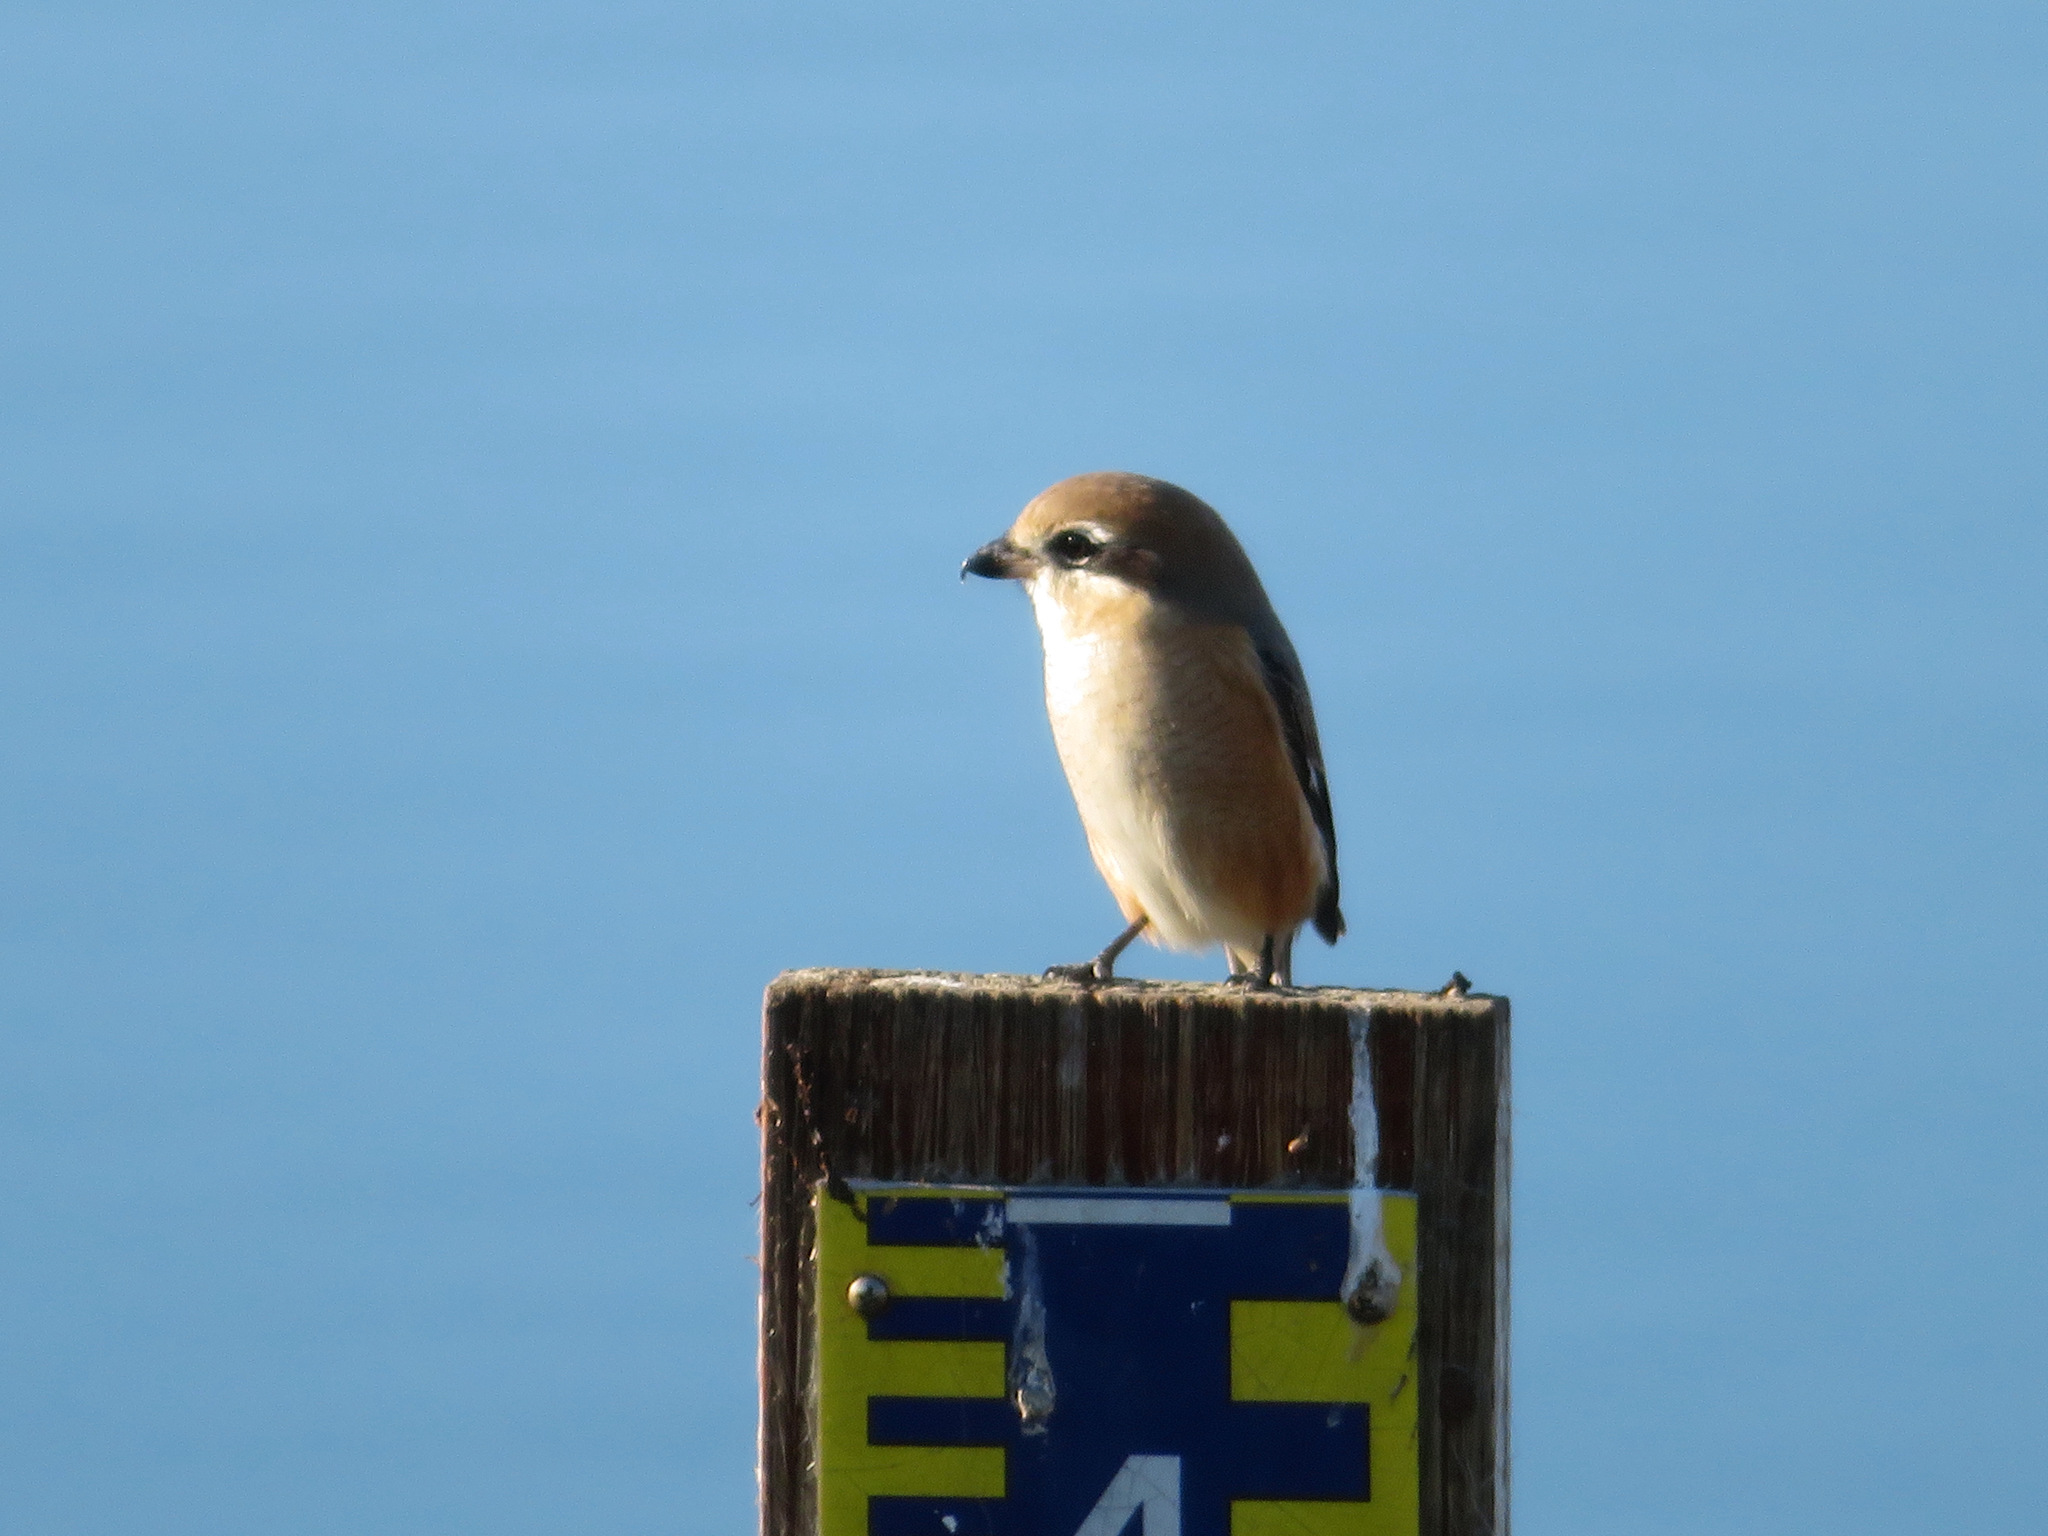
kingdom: Animalia
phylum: Chordata
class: Aves
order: Passeriformes
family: Laniidae
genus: Lanius
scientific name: Lanius bucephalus
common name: Bull-headed shrike
